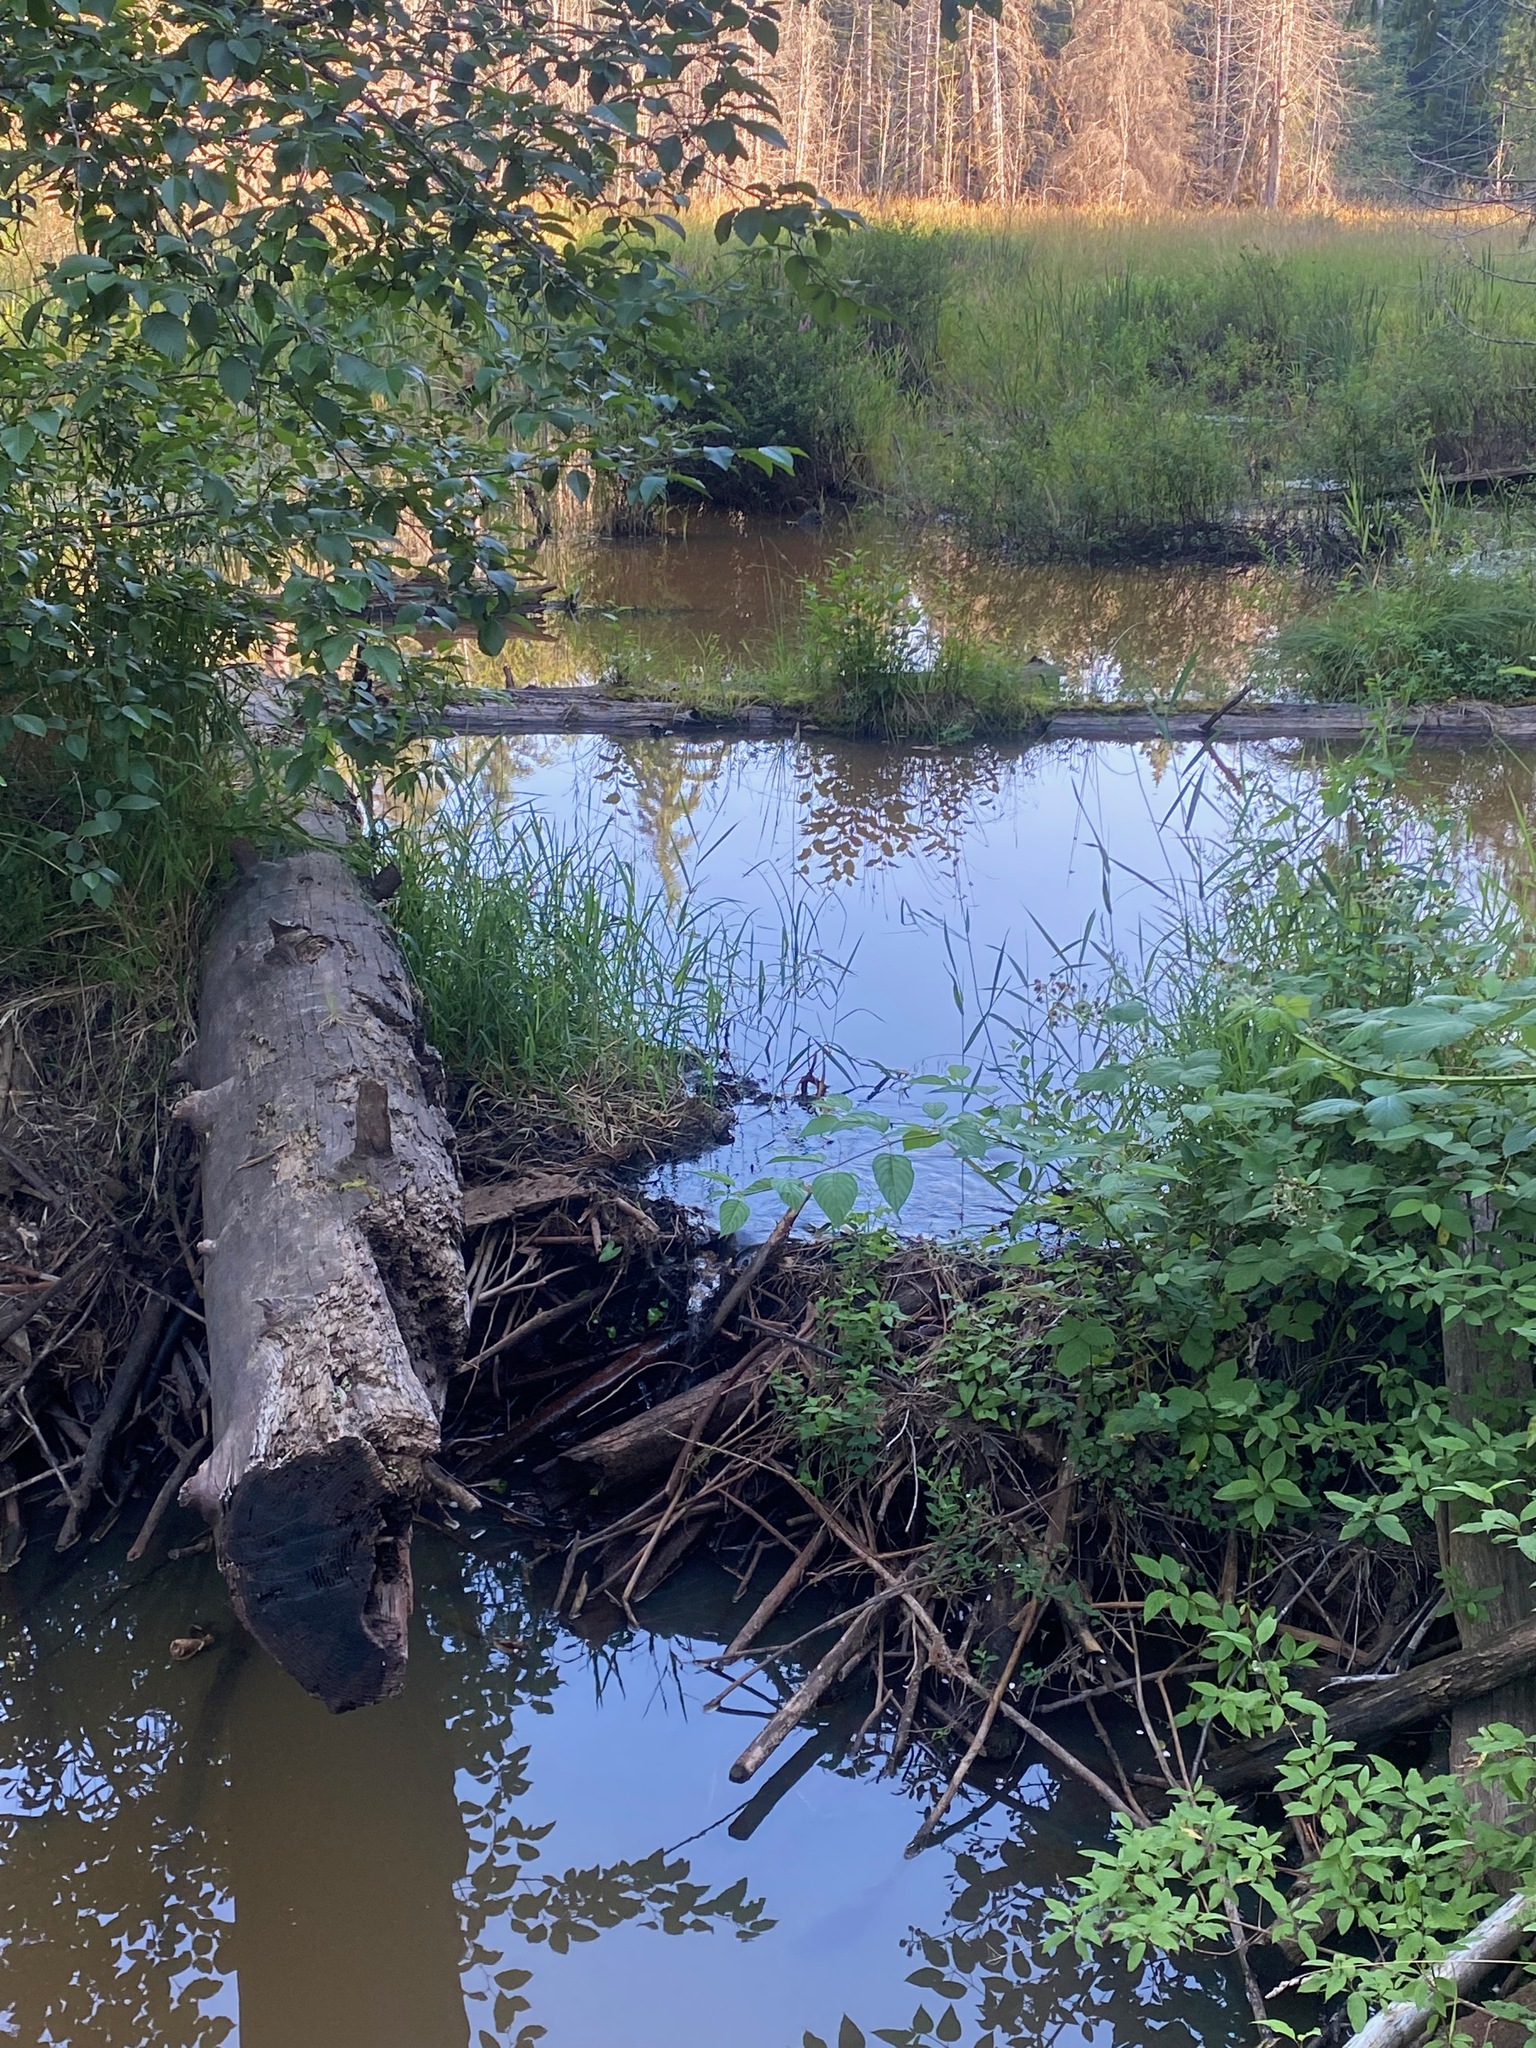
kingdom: Animalia
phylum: Chordata
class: Mammalia
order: Rodentia
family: Castoridae
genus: Castor
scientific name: Castor canadensis
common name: American beaver
